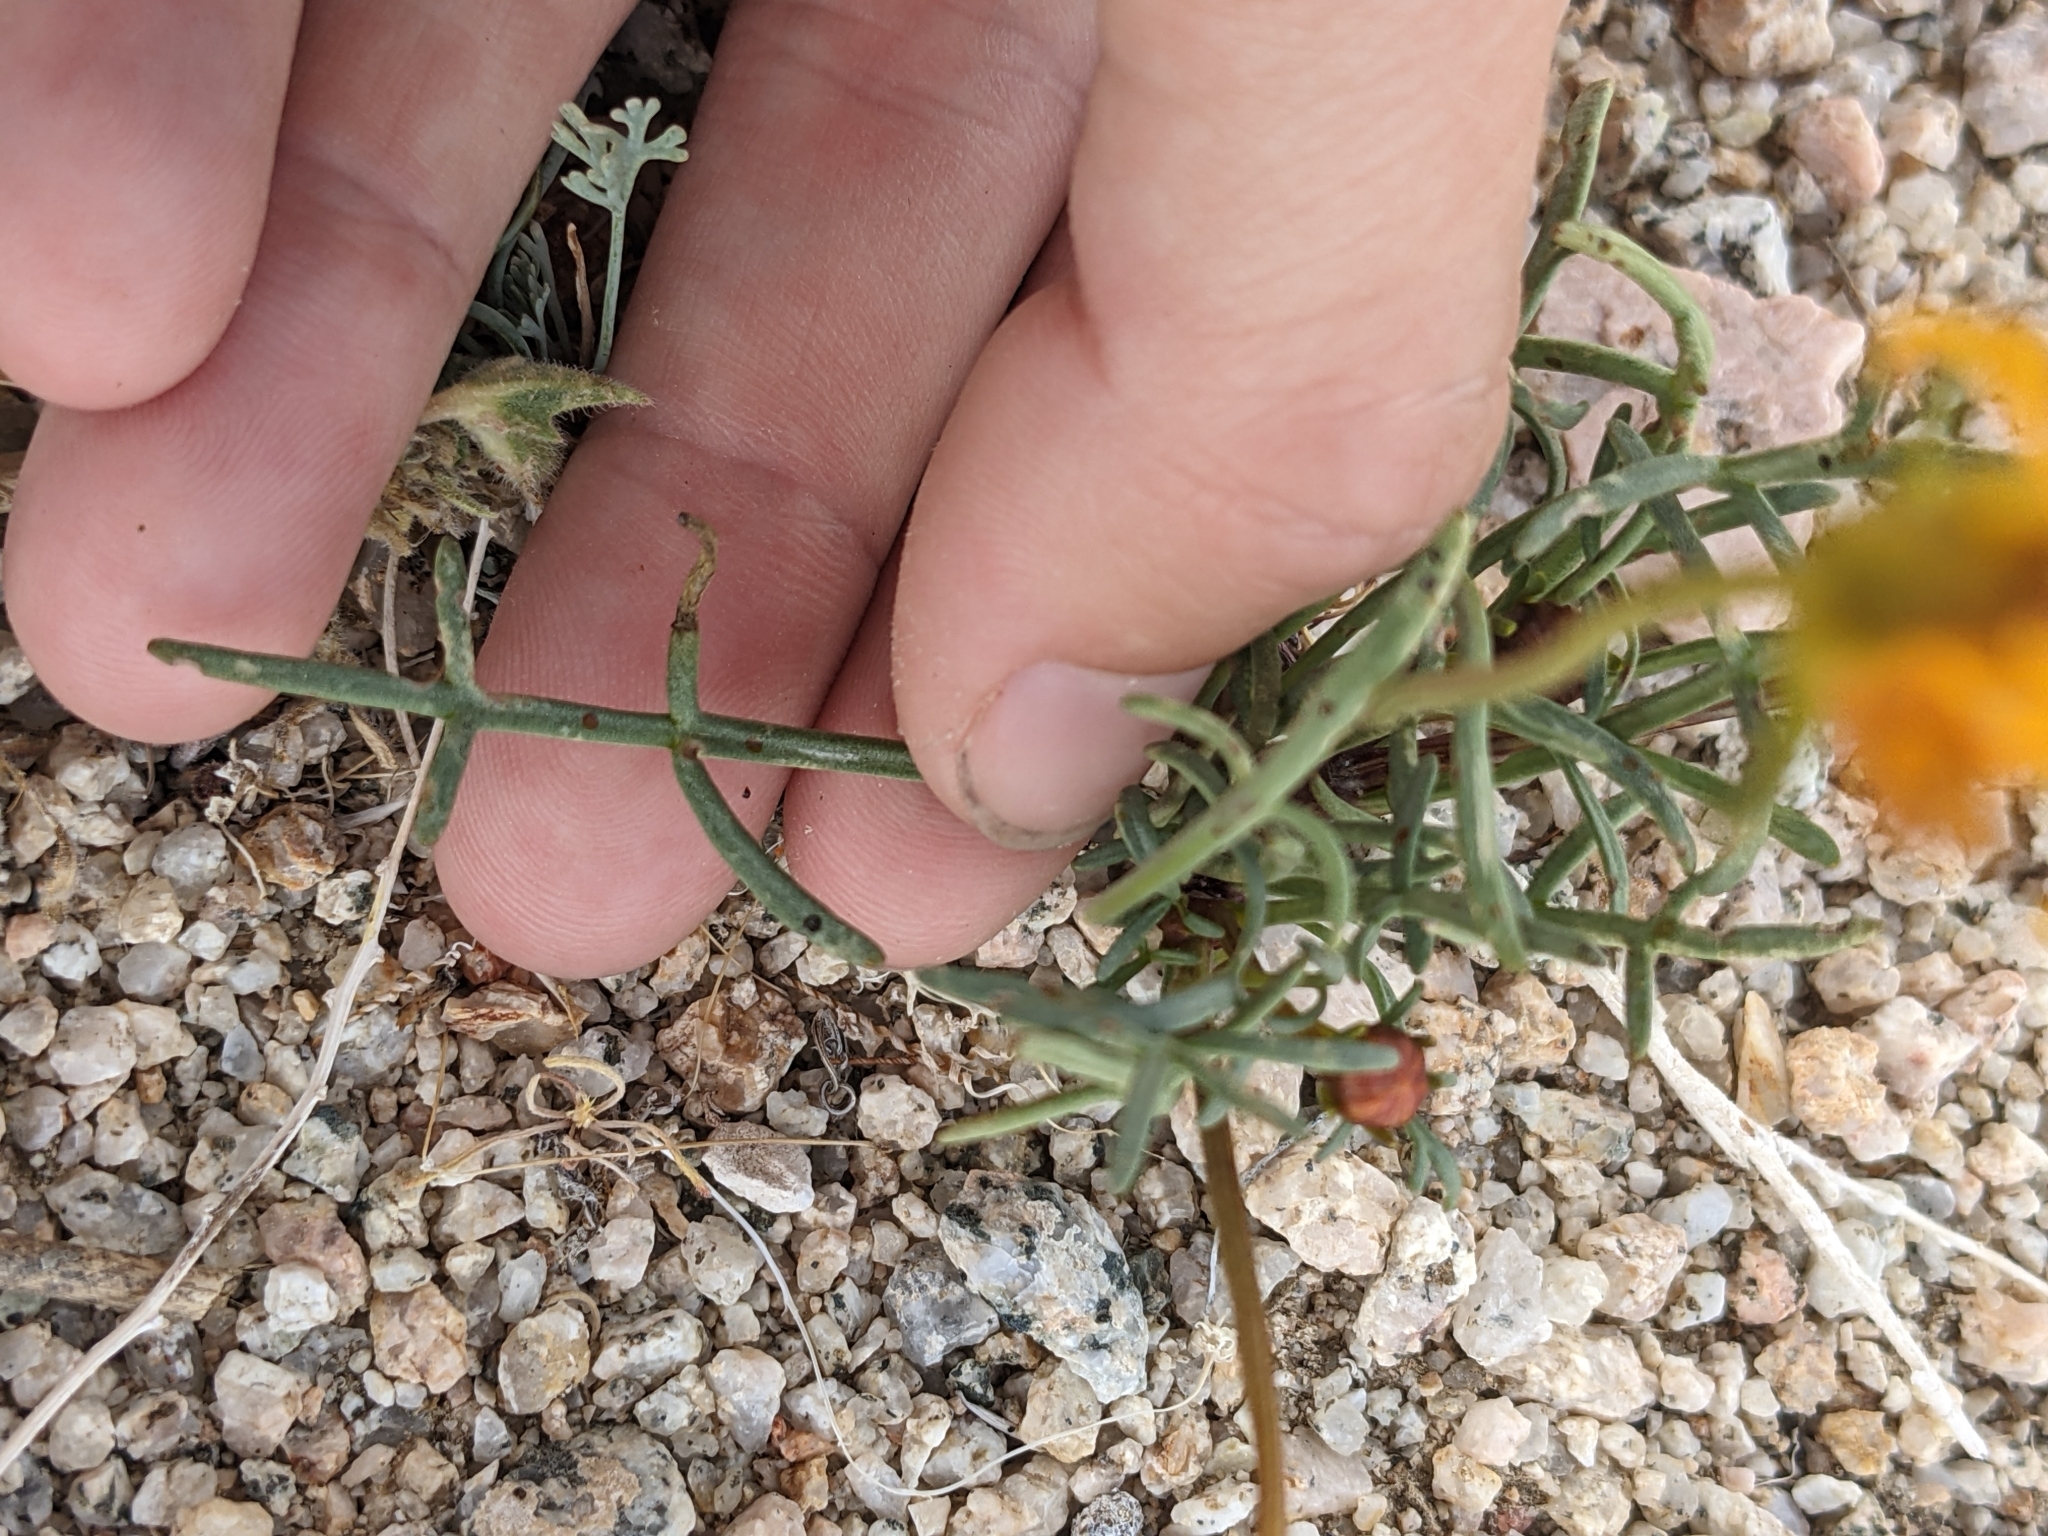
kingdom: Plantae
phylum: Tracheophyta
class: Magnoliopsida
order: Asterales
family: Asteraceae
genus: Coreopsis
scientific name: Coreopsis bigelovii
